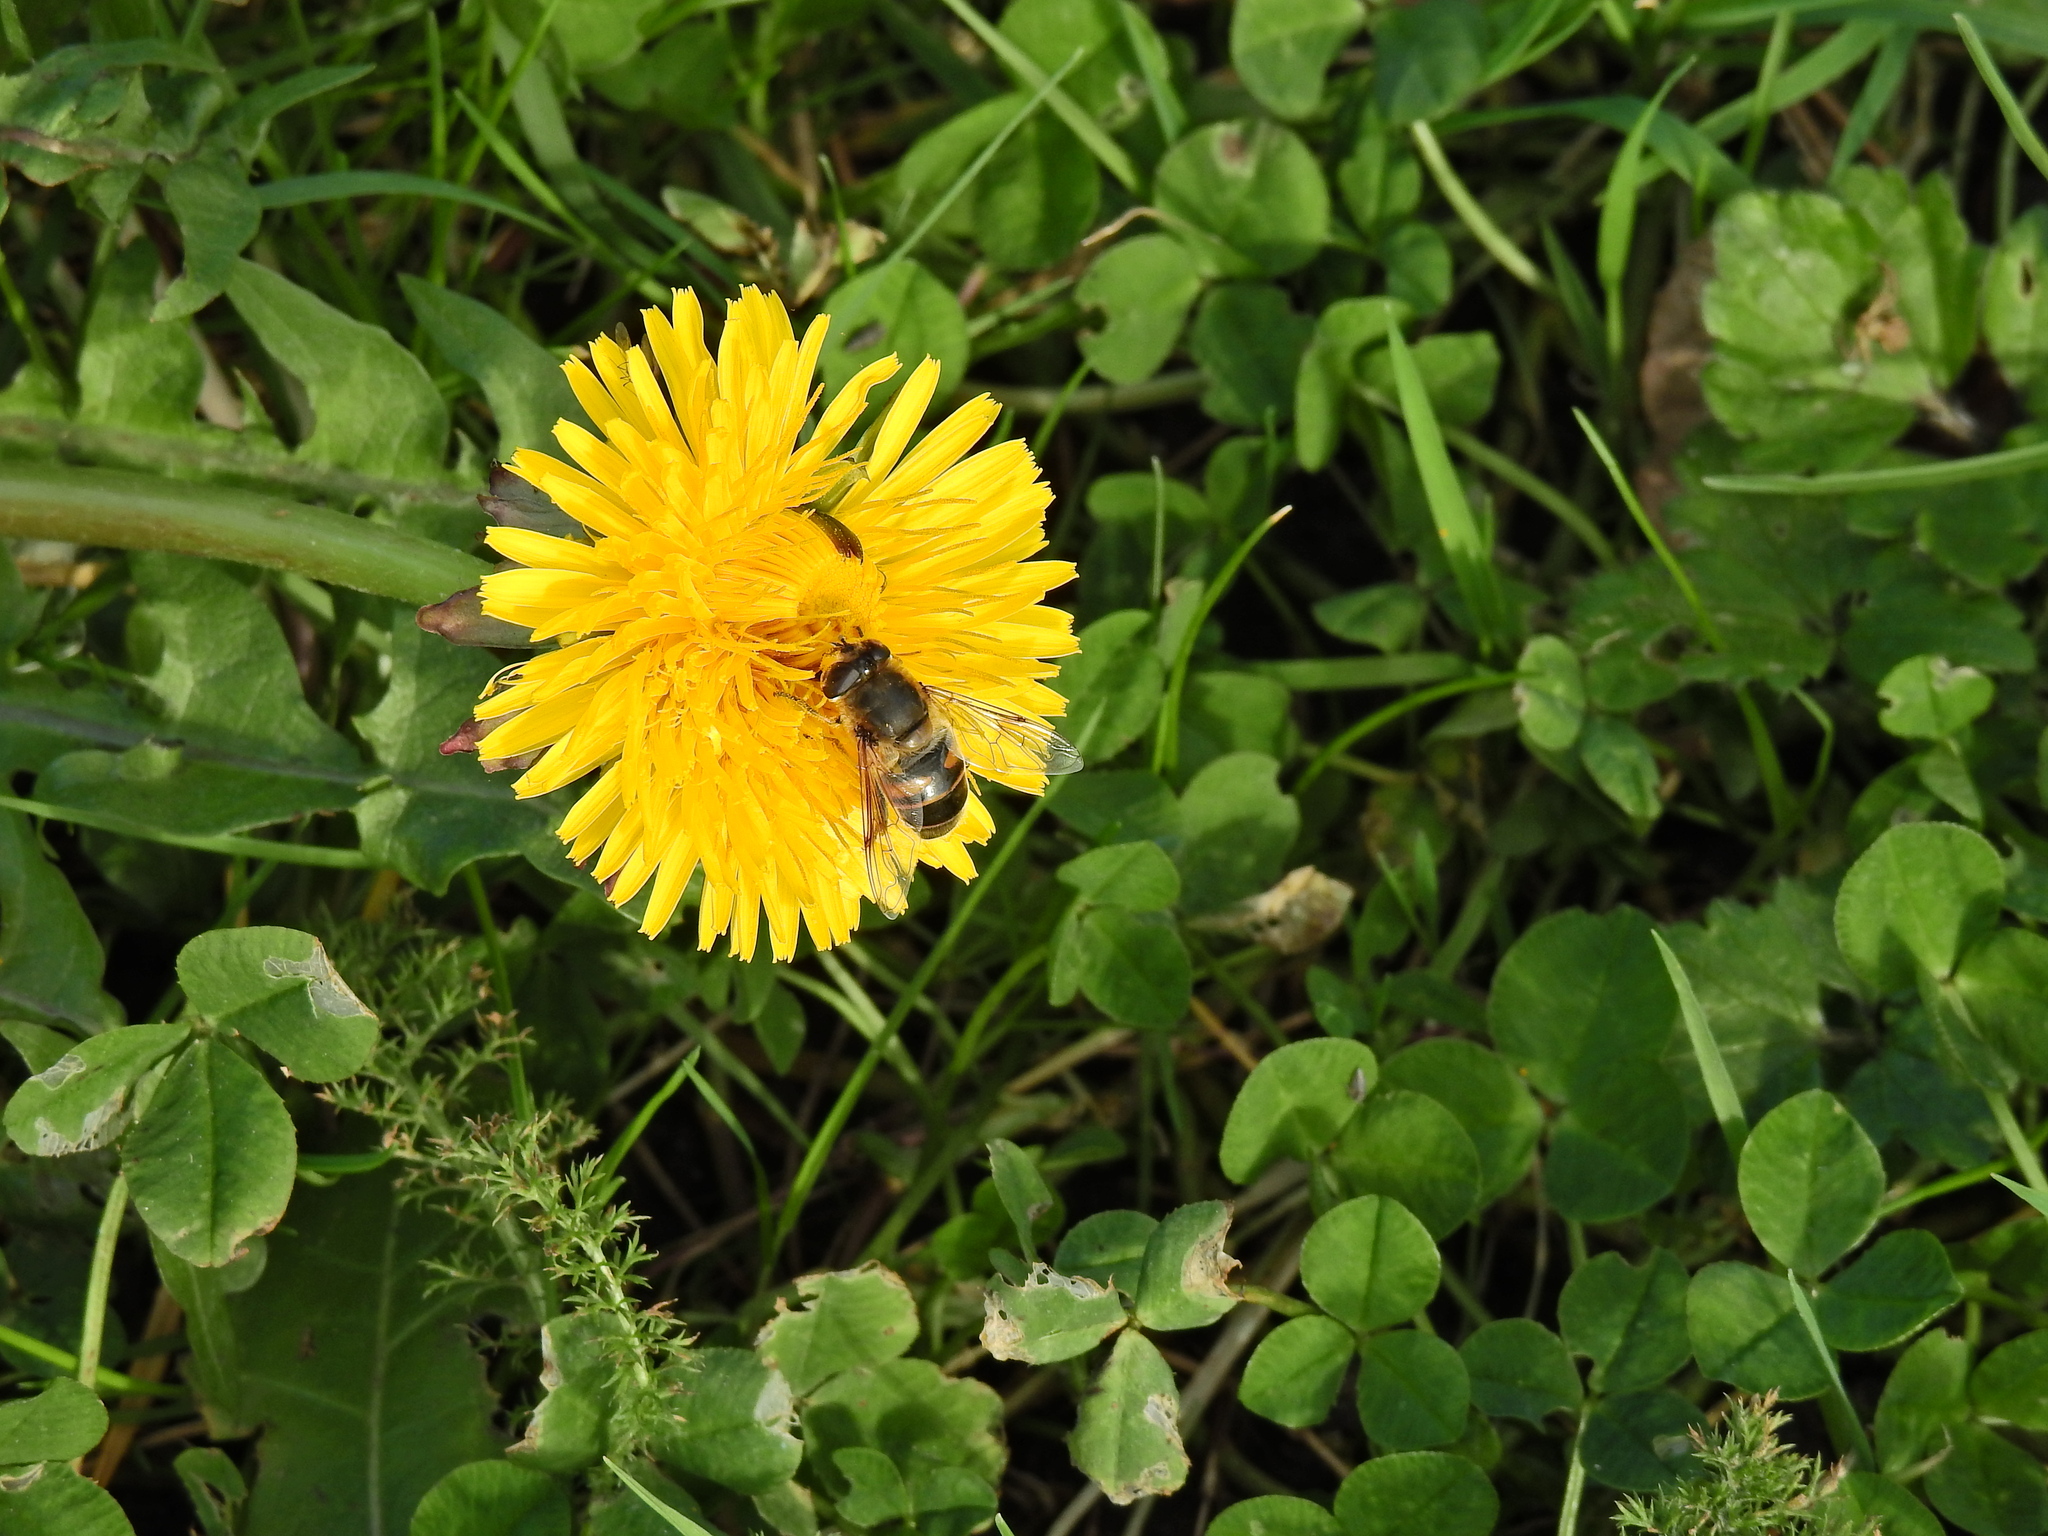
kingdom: Animalia
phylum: Arthropoda
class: Insecta
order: Diptera
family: Syrphidae
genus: Eristalis
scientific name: Eristalis tenax
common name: Drone fly
